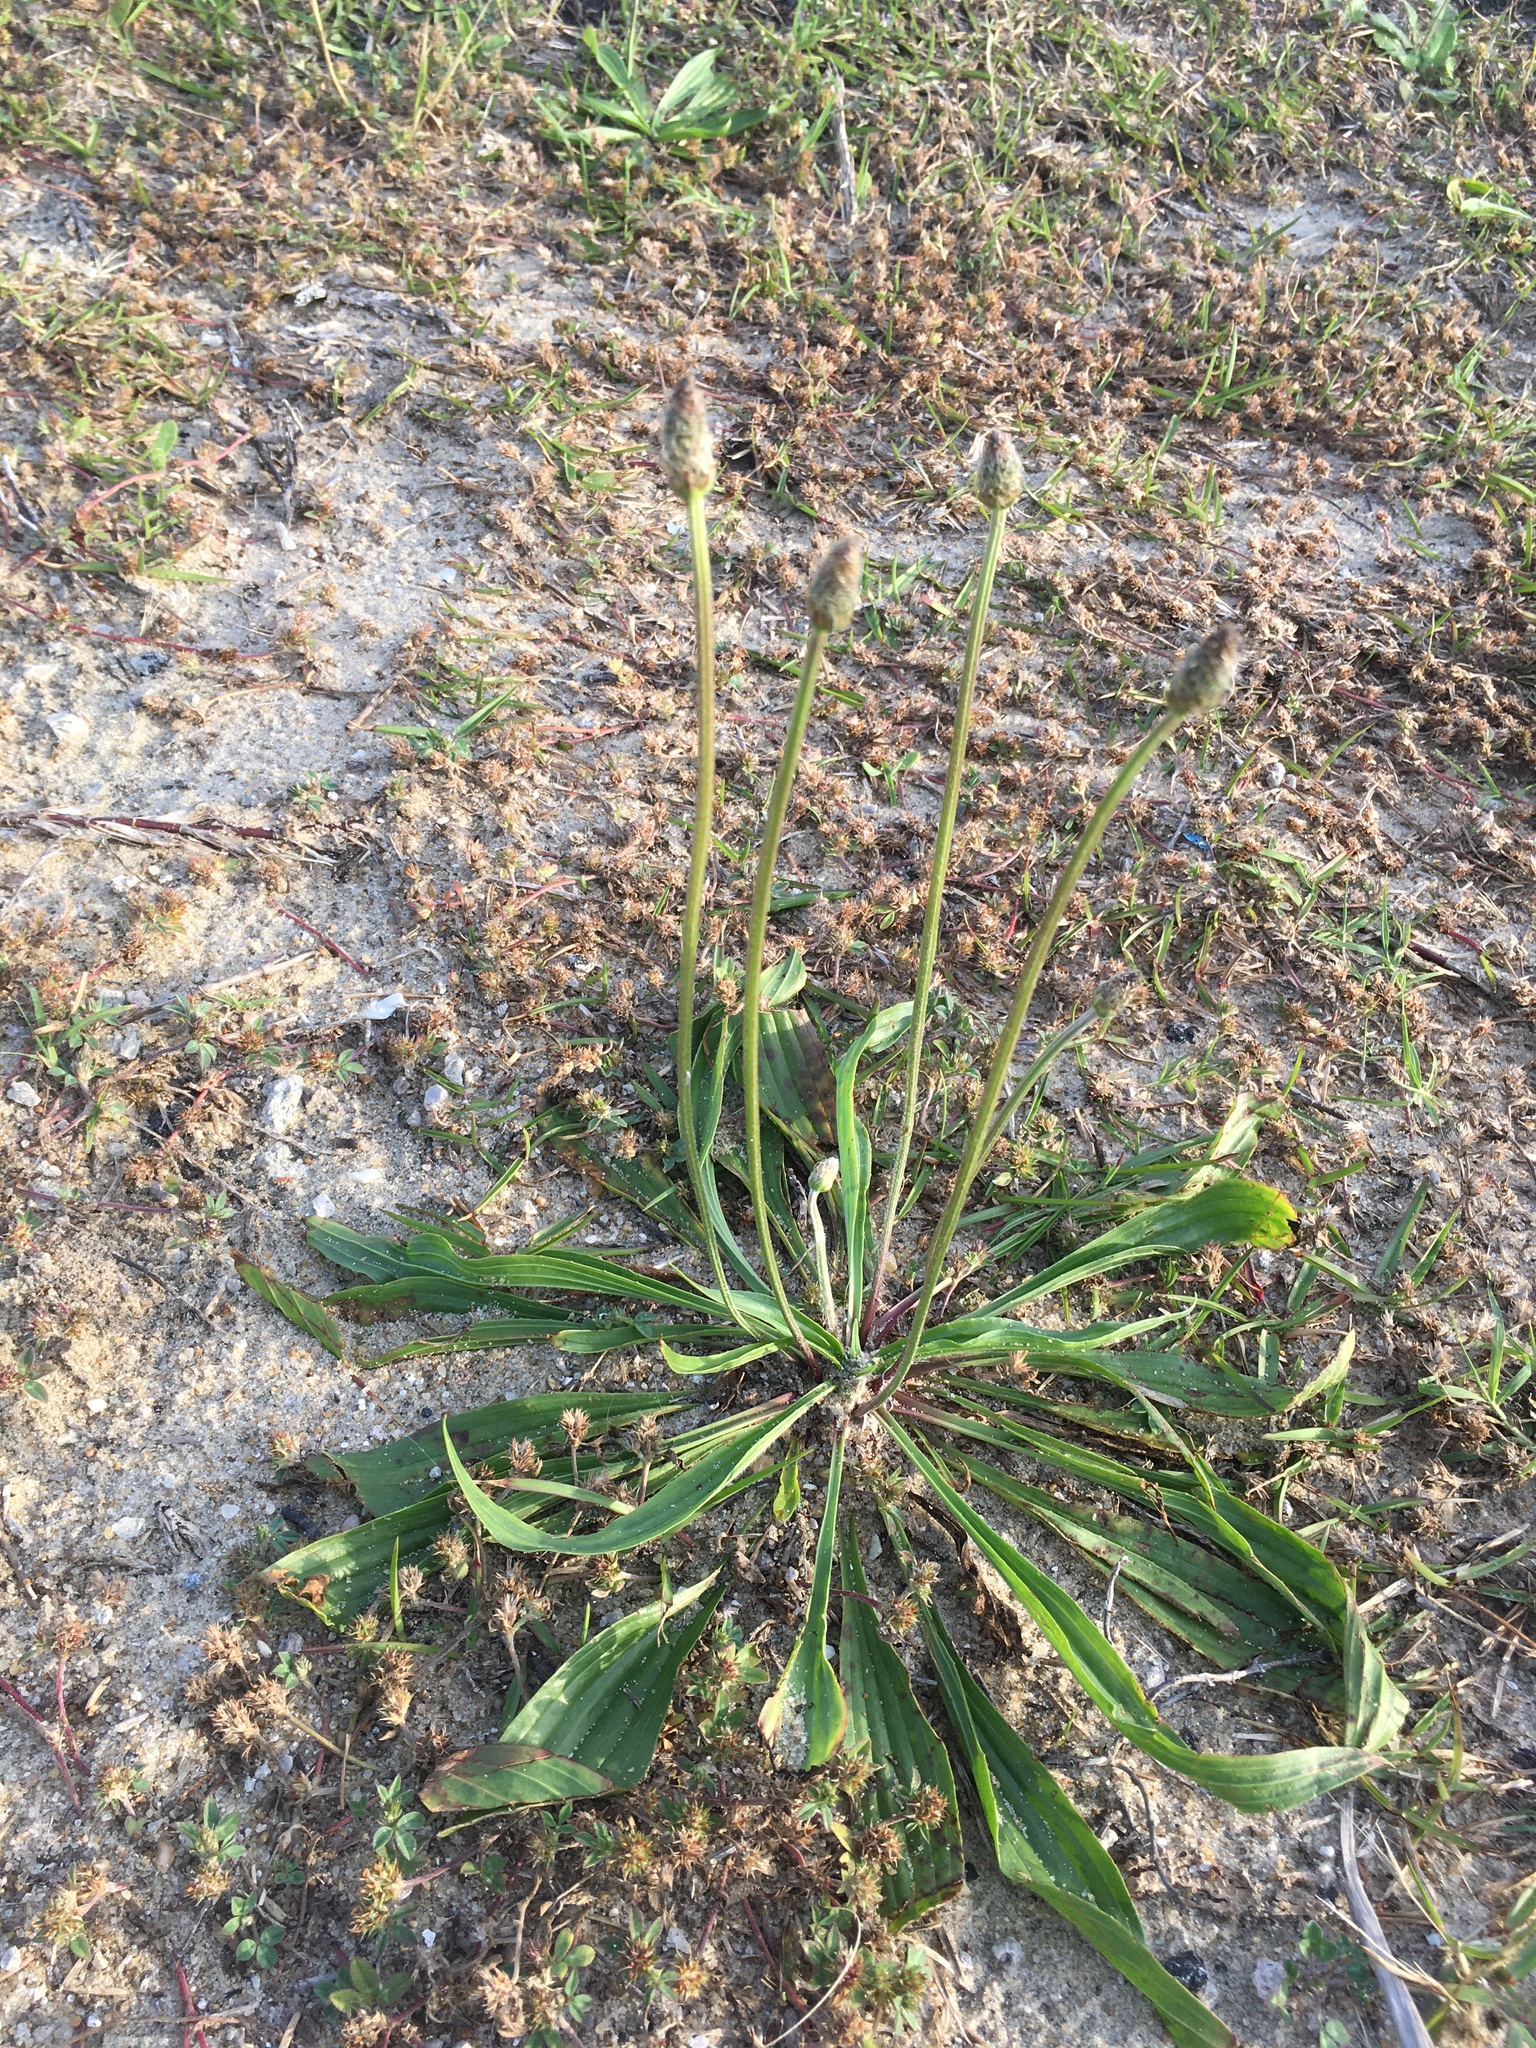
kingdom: Plantae
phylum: Tracheophyta
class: Magnoliopsida
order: Lamiales
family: Plantaginaceae
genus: Plantago
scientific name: Plantago lanceolata
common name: Ribwort plantain
